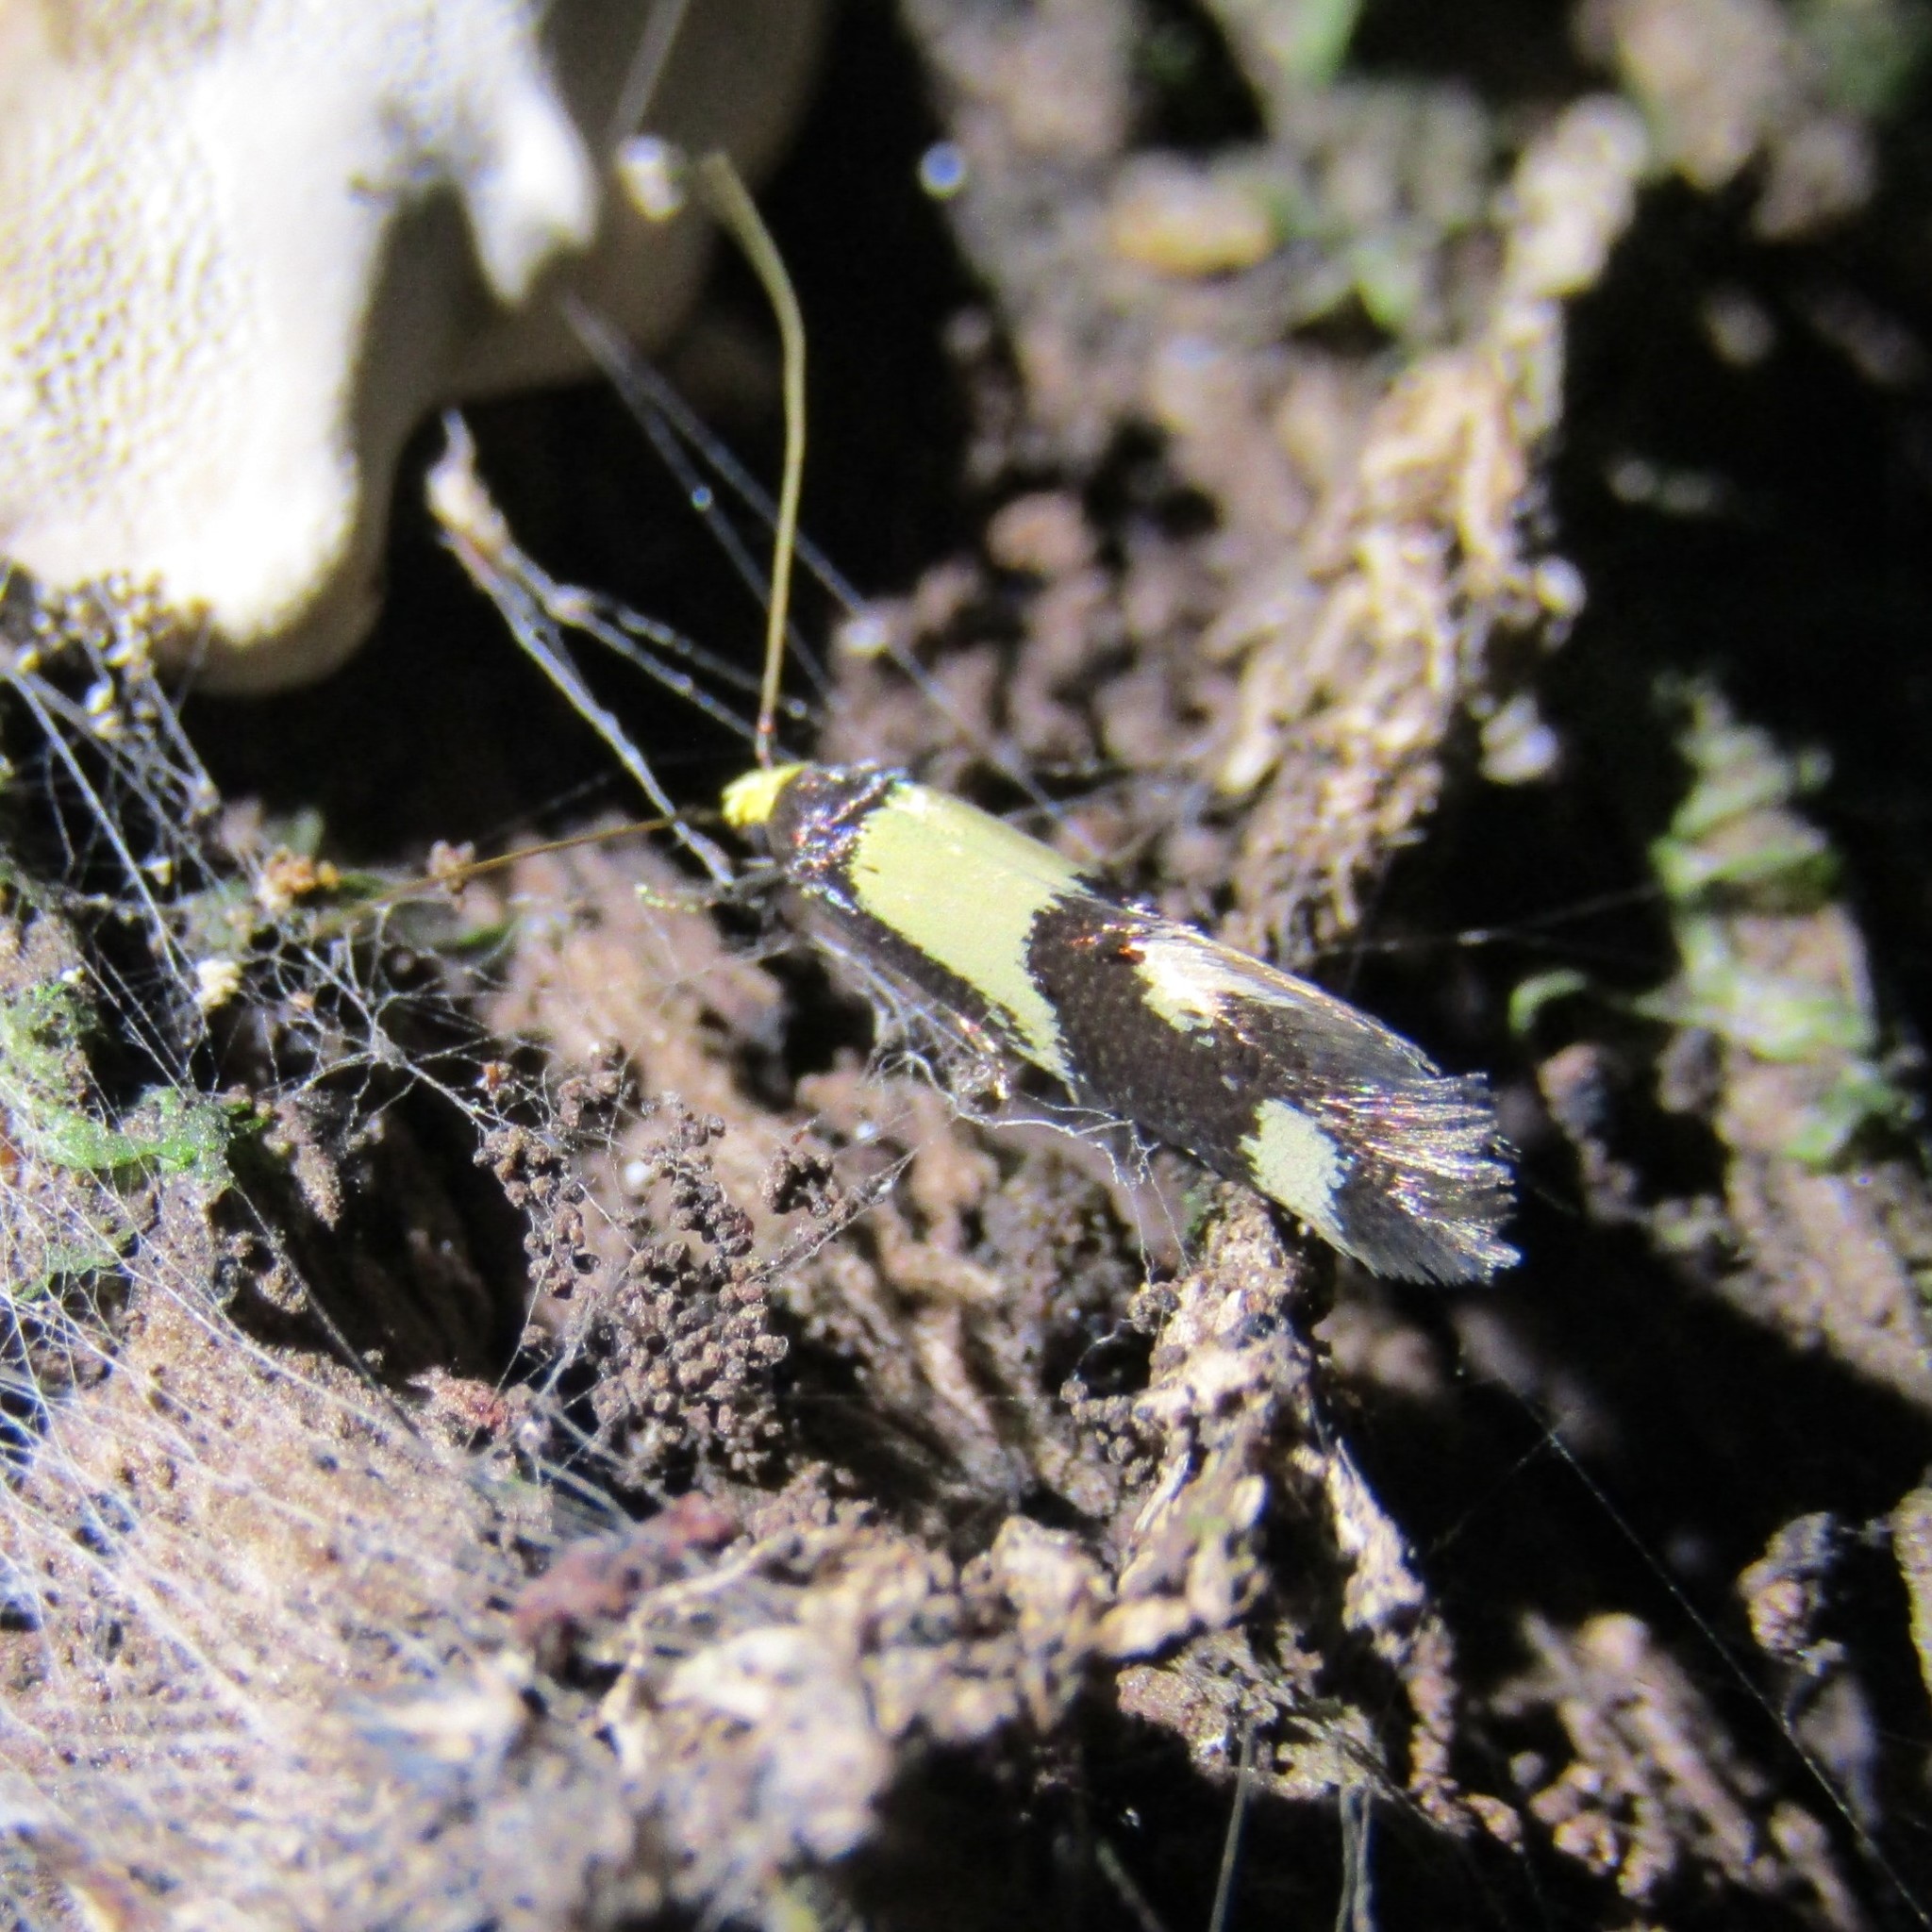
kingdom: Animalia
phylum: Arthropoda
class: Insecta
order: Lepidoptera
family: Tineidae
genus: Opogona
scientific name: Opogona comptella
